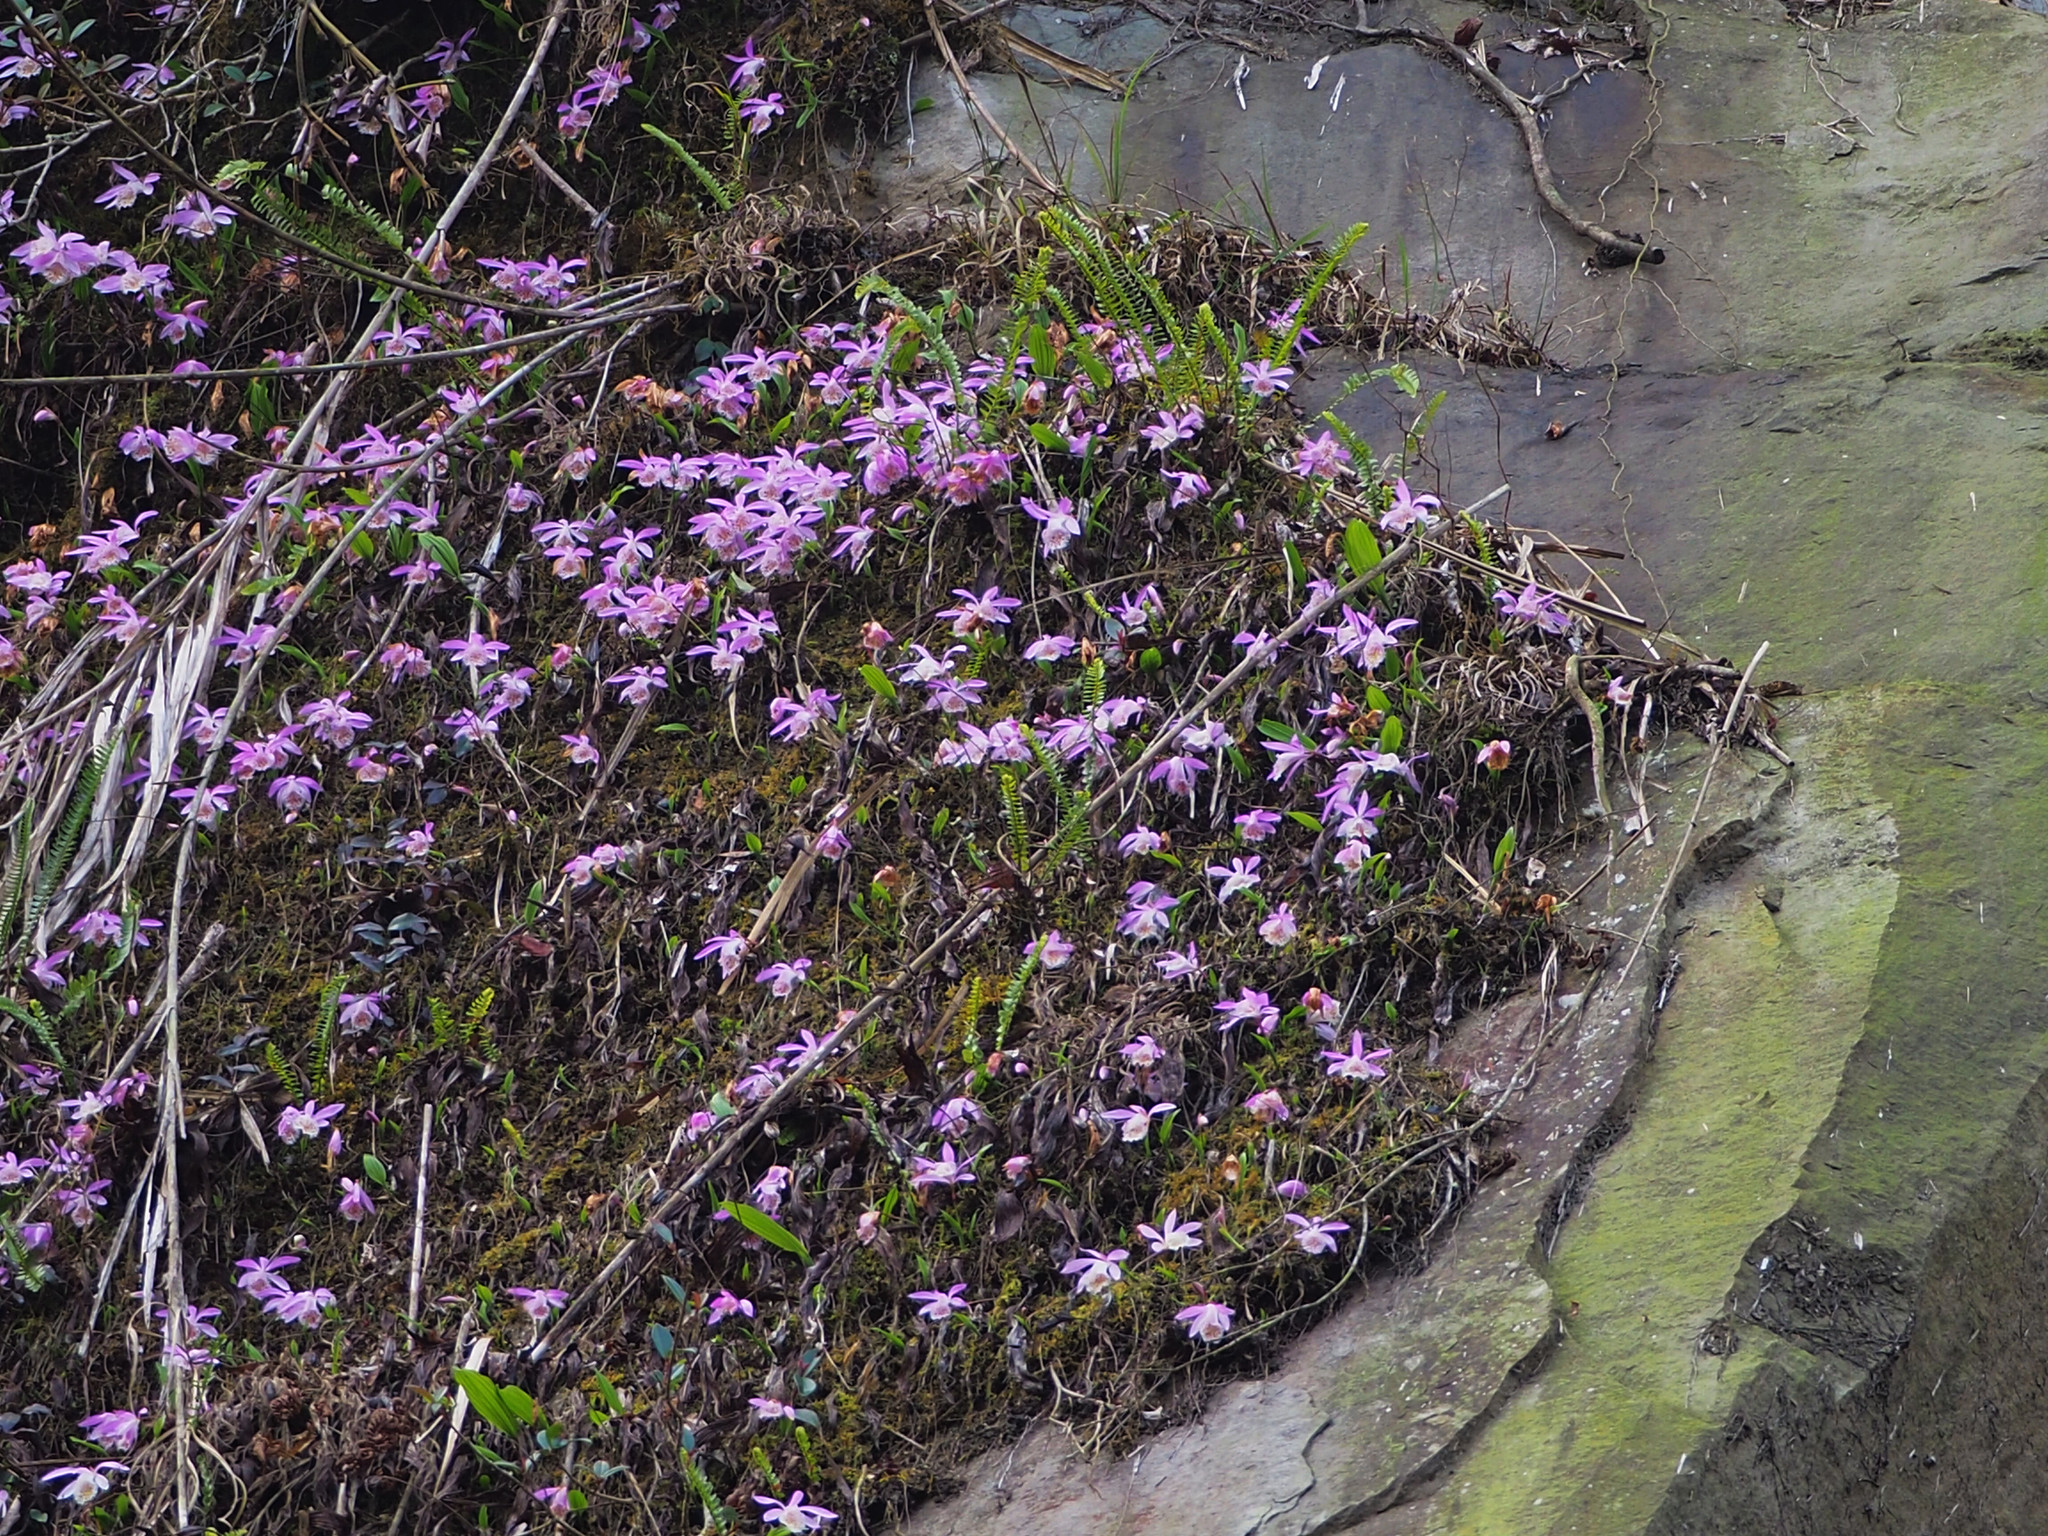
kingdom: Plantae
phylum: Tracheophyta
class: Liliopsida
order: Asparagales
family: Orchidaceae
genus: Pleione
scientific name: Pleione formosana
